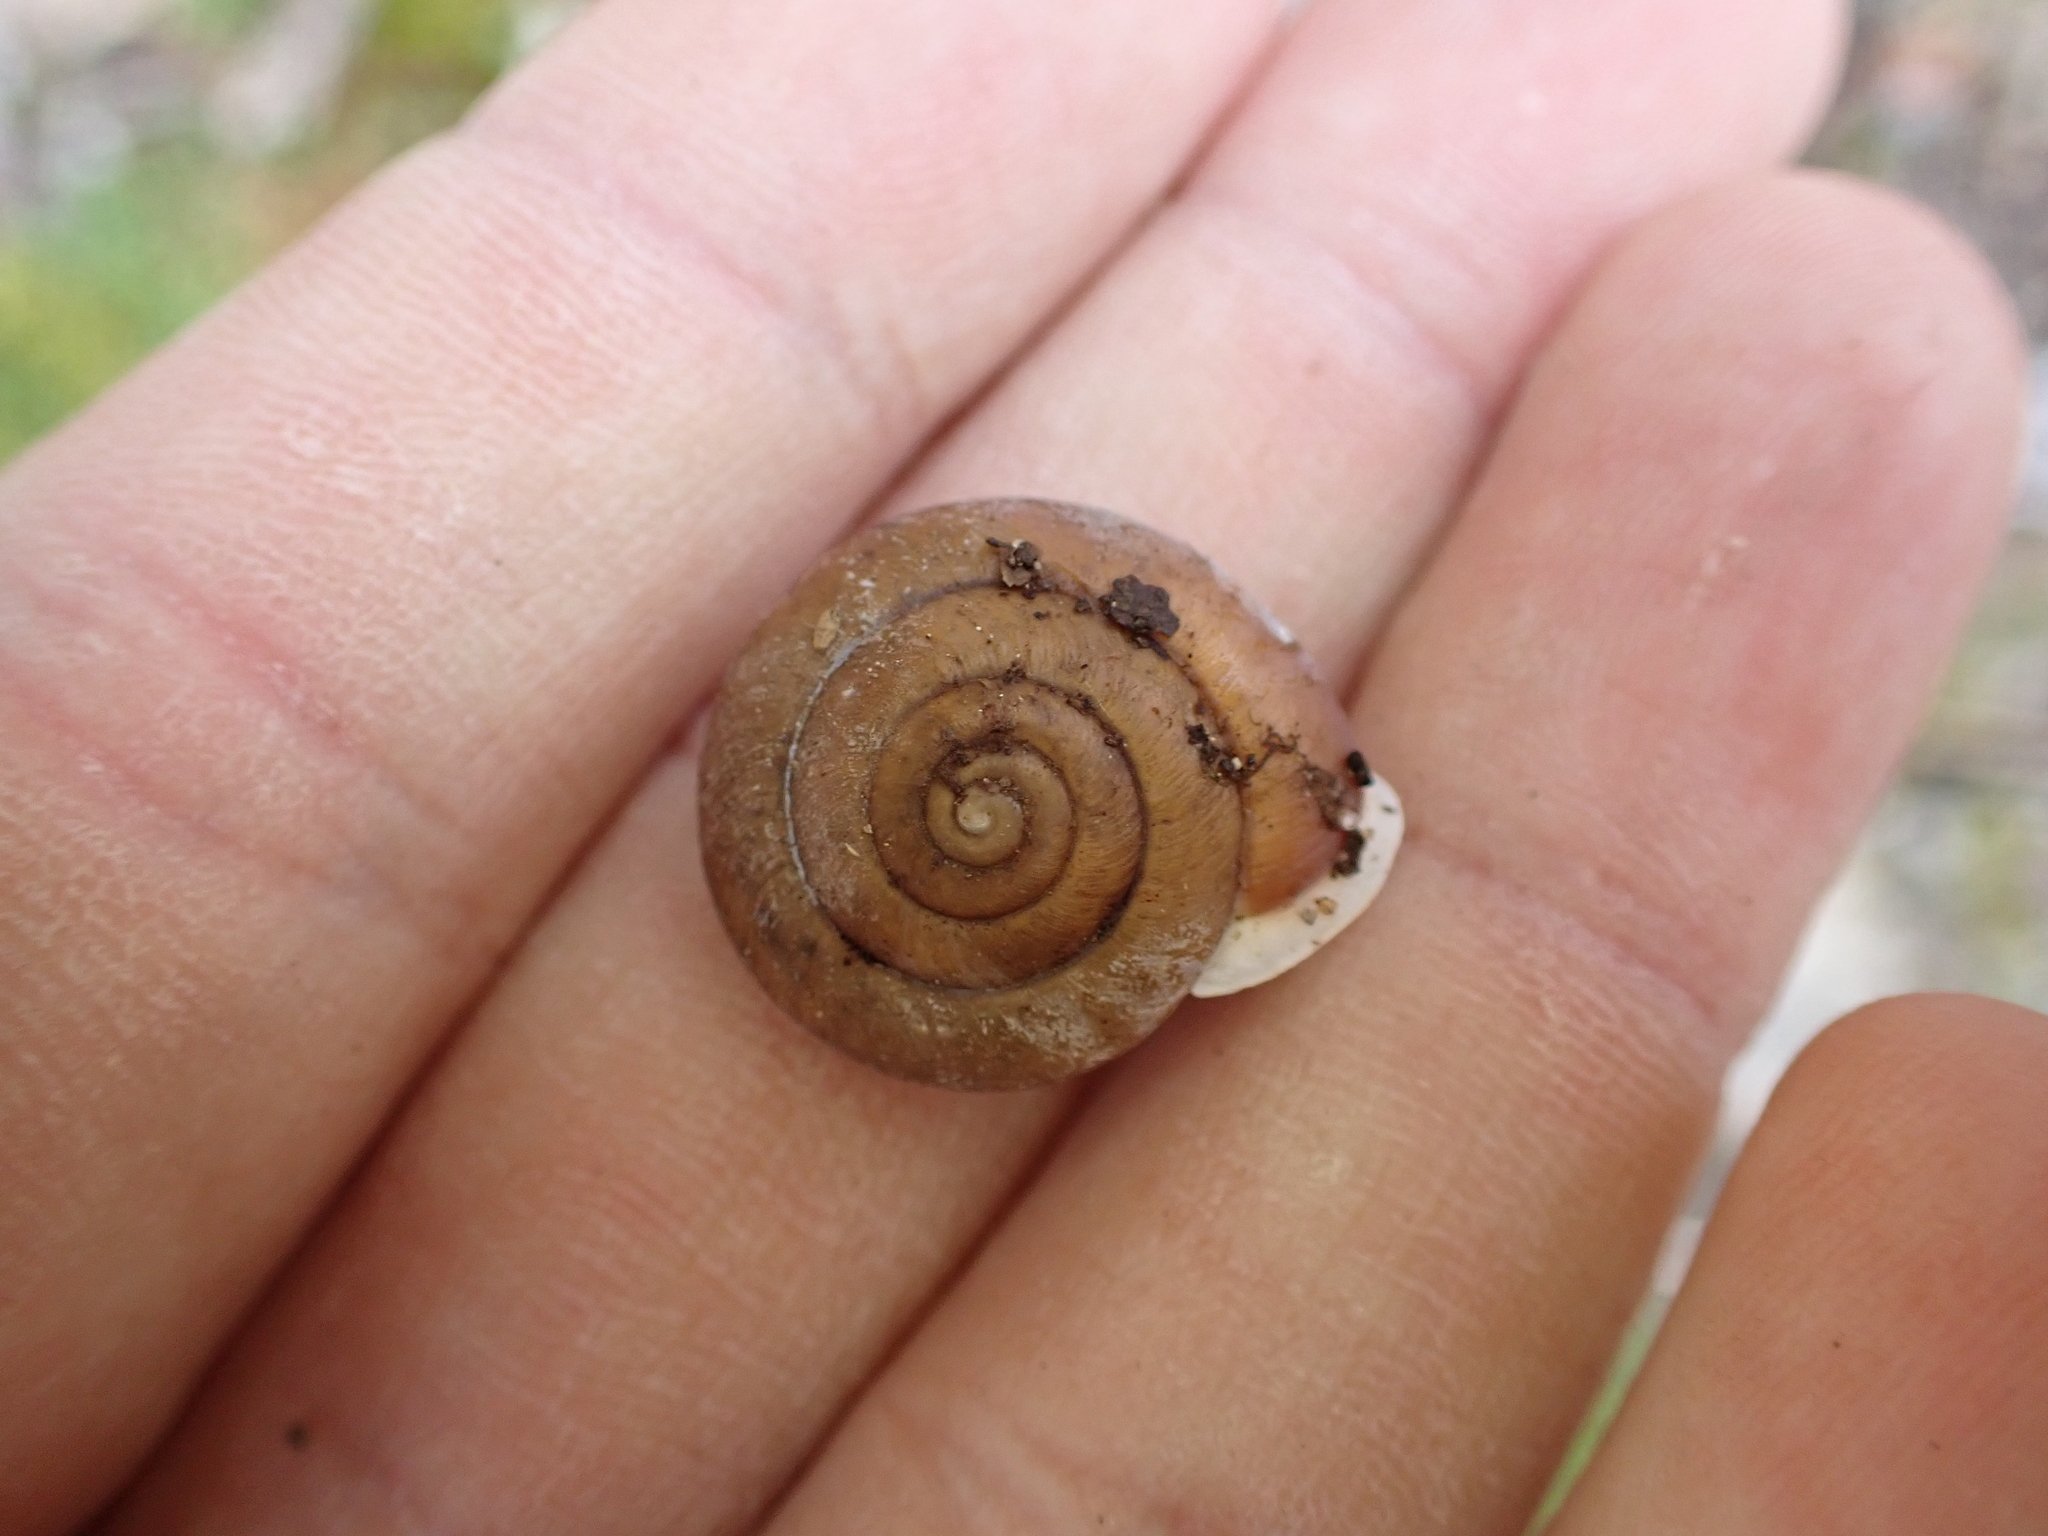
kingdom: Animalia
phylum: Mollusca
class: Gastropoda
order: Stylommatophora
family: Polygyridae
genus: Xolotrema
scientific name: Xolotrema denotatum
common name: Velvet wedge
